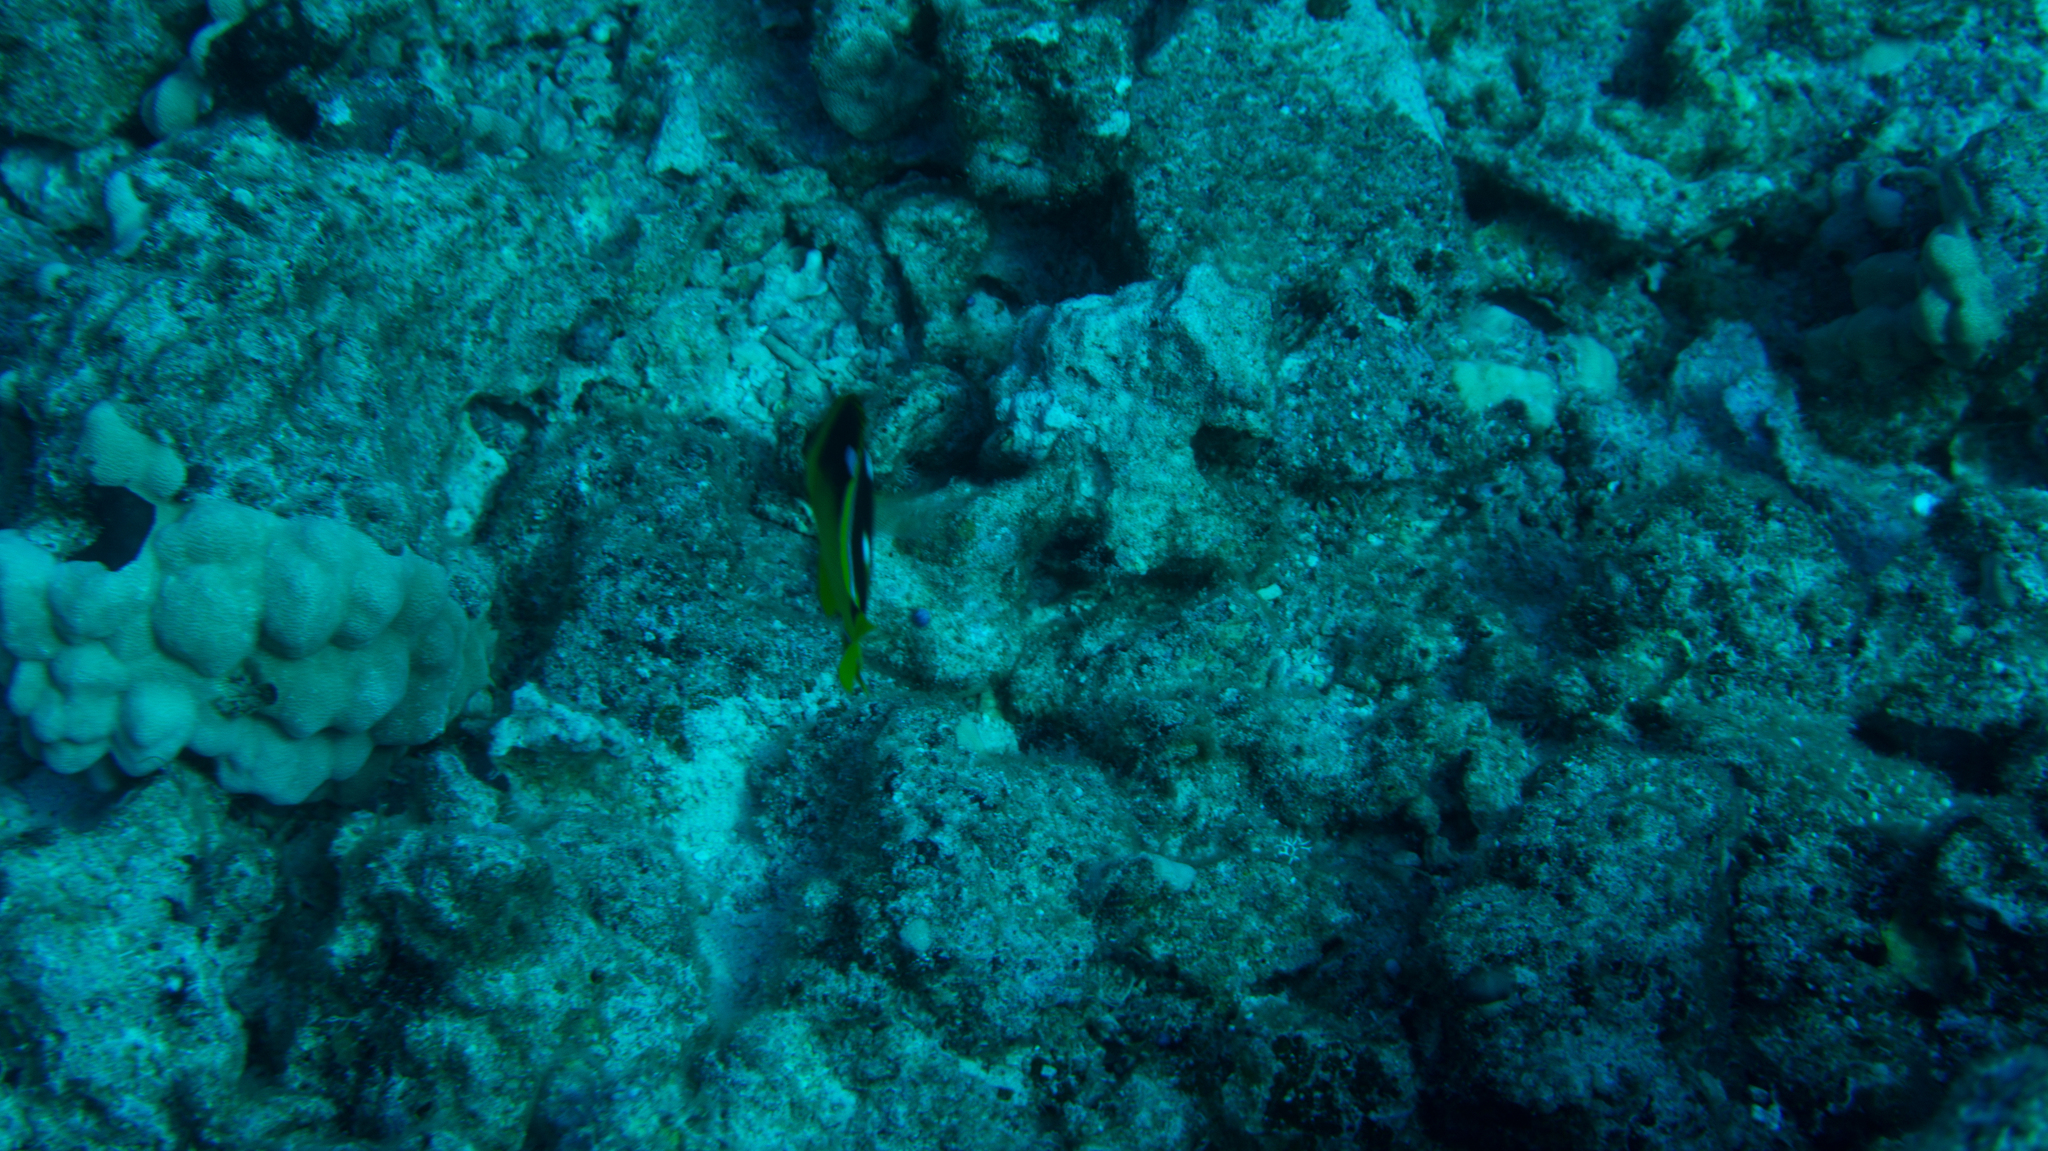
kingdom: Animalia
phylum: Chordata
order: Perciformes
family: Chaetodontidae
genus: Chaetodon
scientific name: Chaetodon quadrimaculatus
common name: Fourspot butterflyfish
